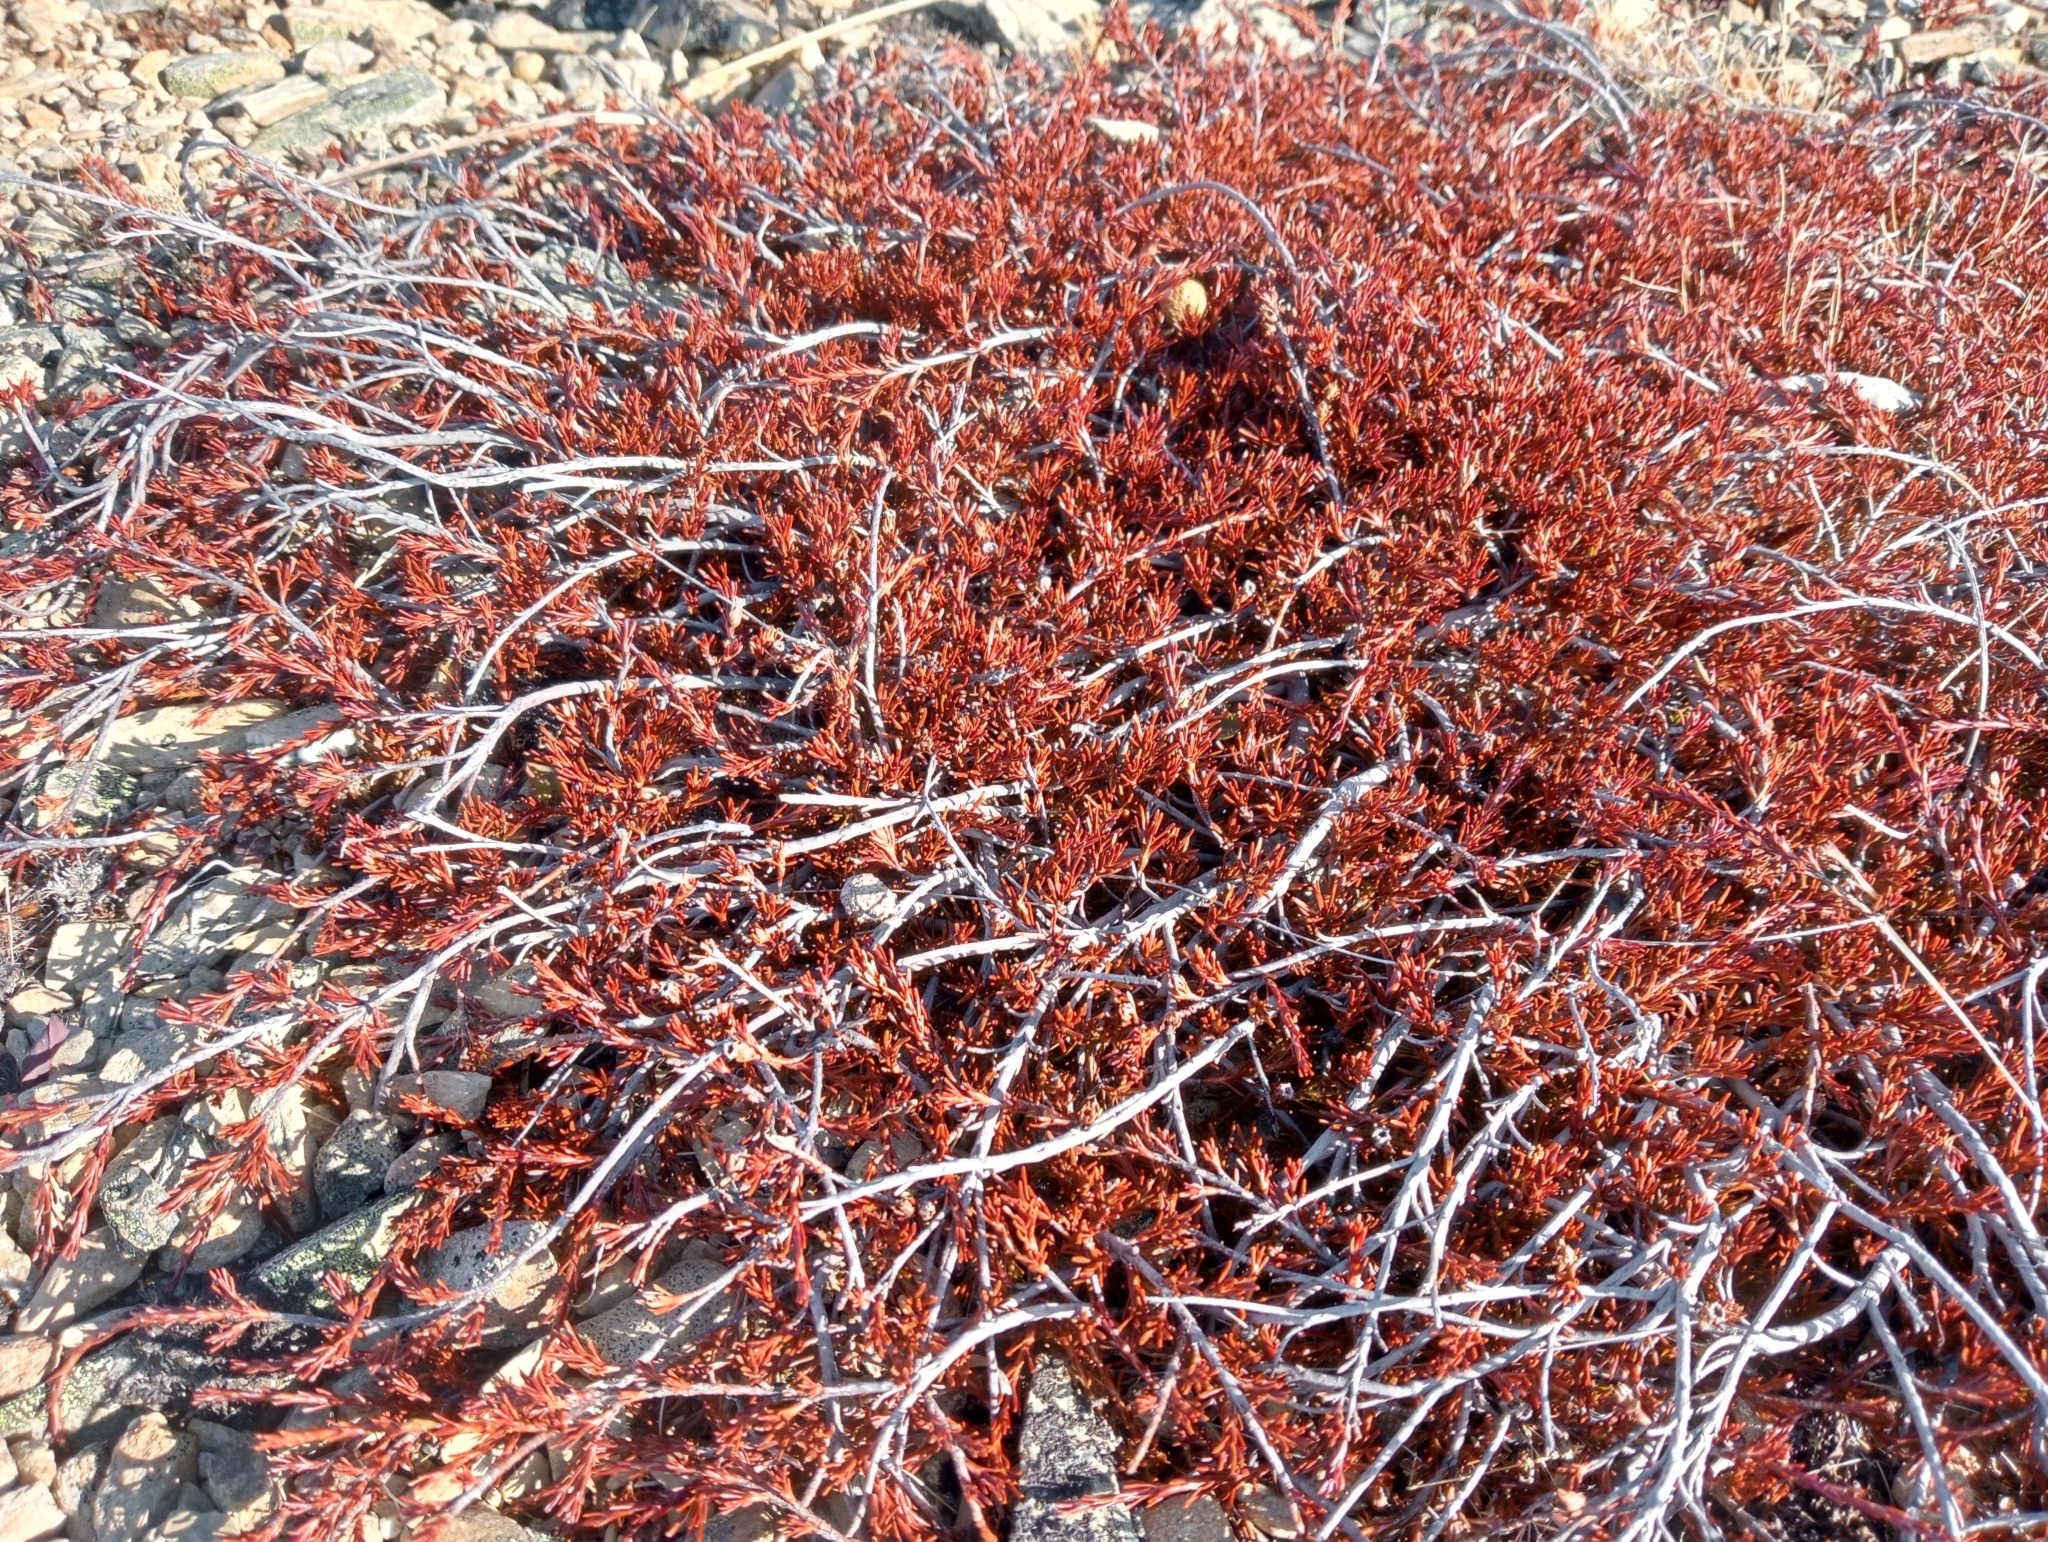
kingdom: Plantae
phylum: Tracheophyta
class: Magnoliopsida
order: Ericales
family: Ericaceae
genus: Dracophyllum
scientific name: Dracophyllum pronum
